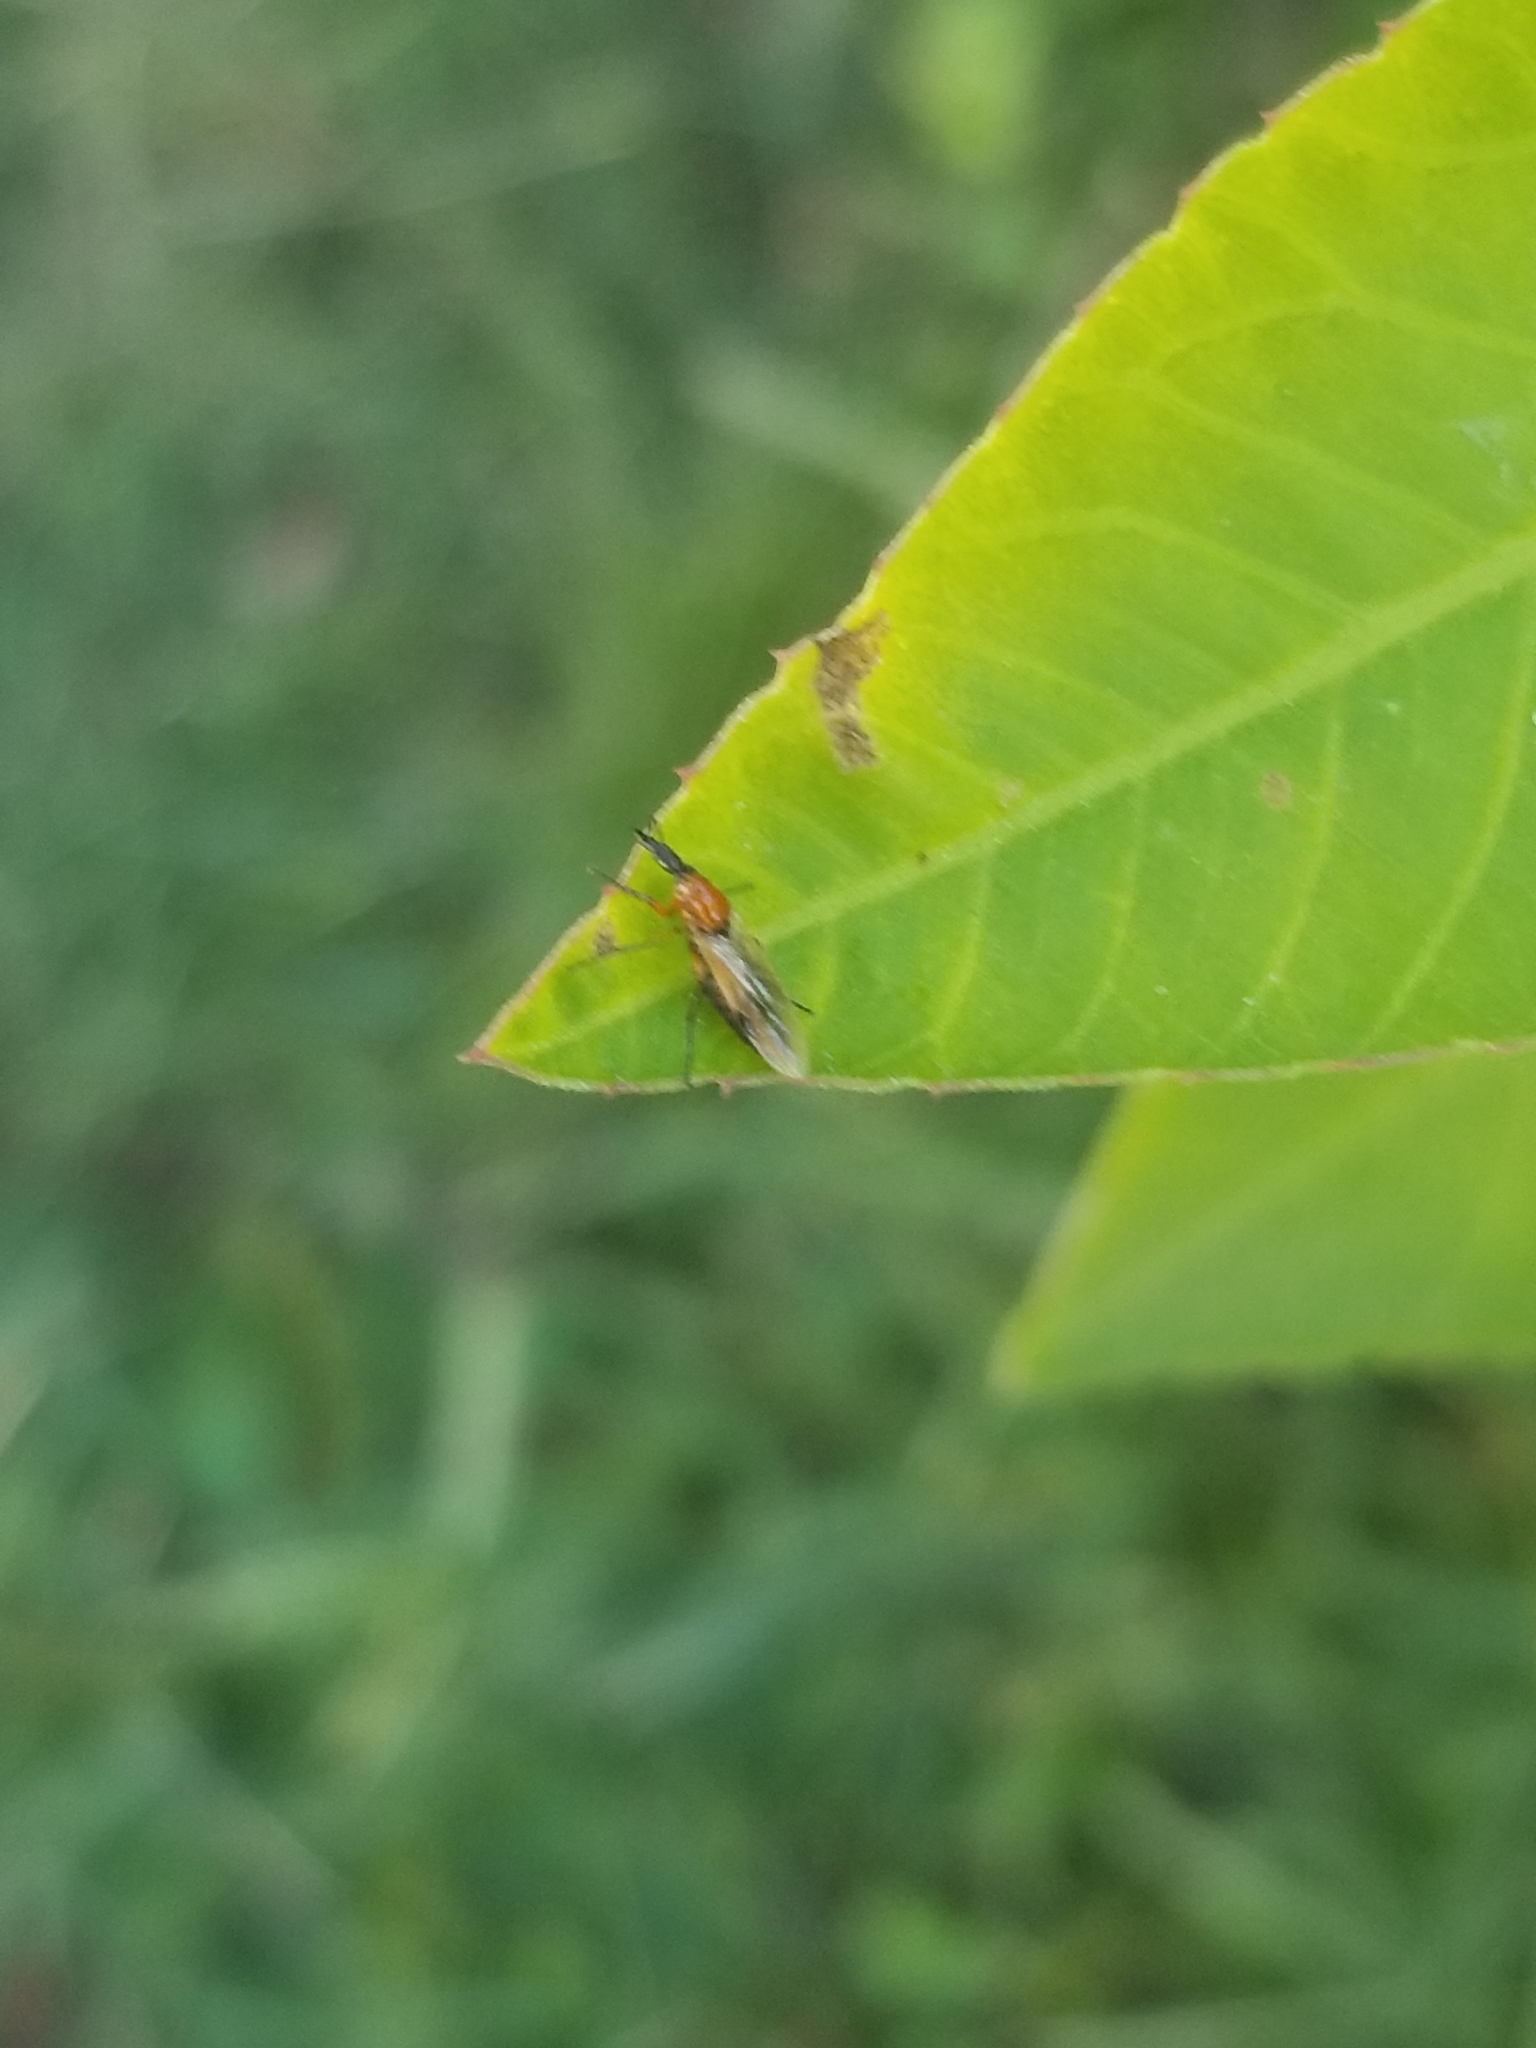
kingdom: Animalia
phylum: Arthropoda
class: Insecta
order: Diptera
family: Bibionidae
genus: Dilophus
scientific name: Dilophus spinipes
